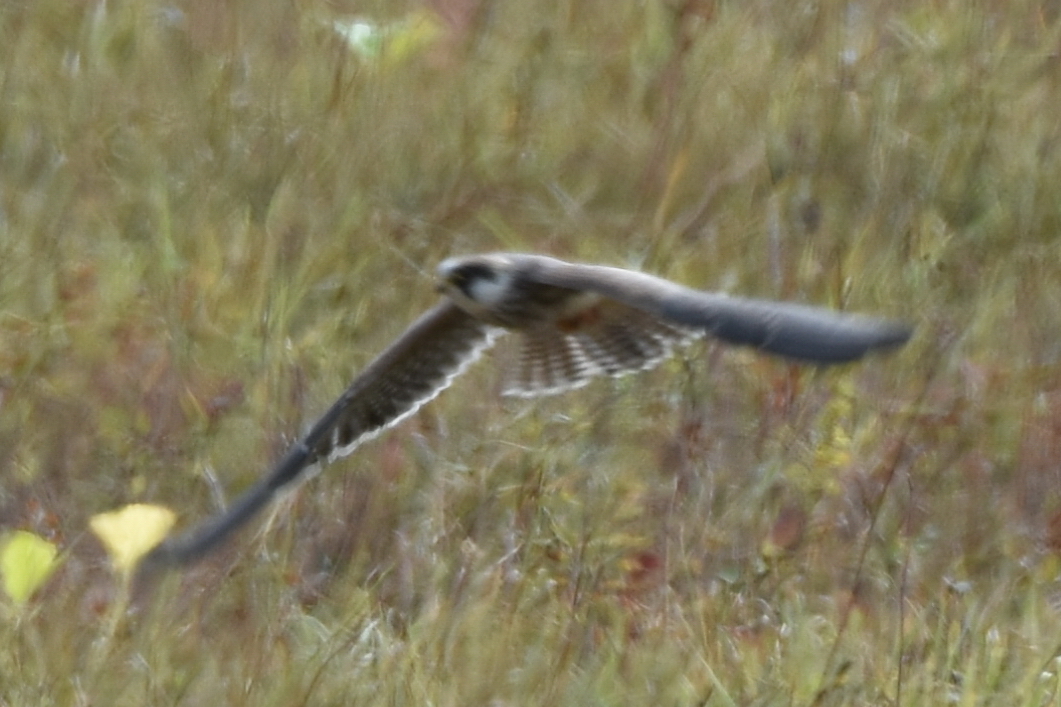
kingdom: Animalia
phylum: Chordata
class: Aves
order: Falconiformes
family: Falconidae
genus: Falco
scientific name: Falco subbuteo
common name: Eurasian hobby
